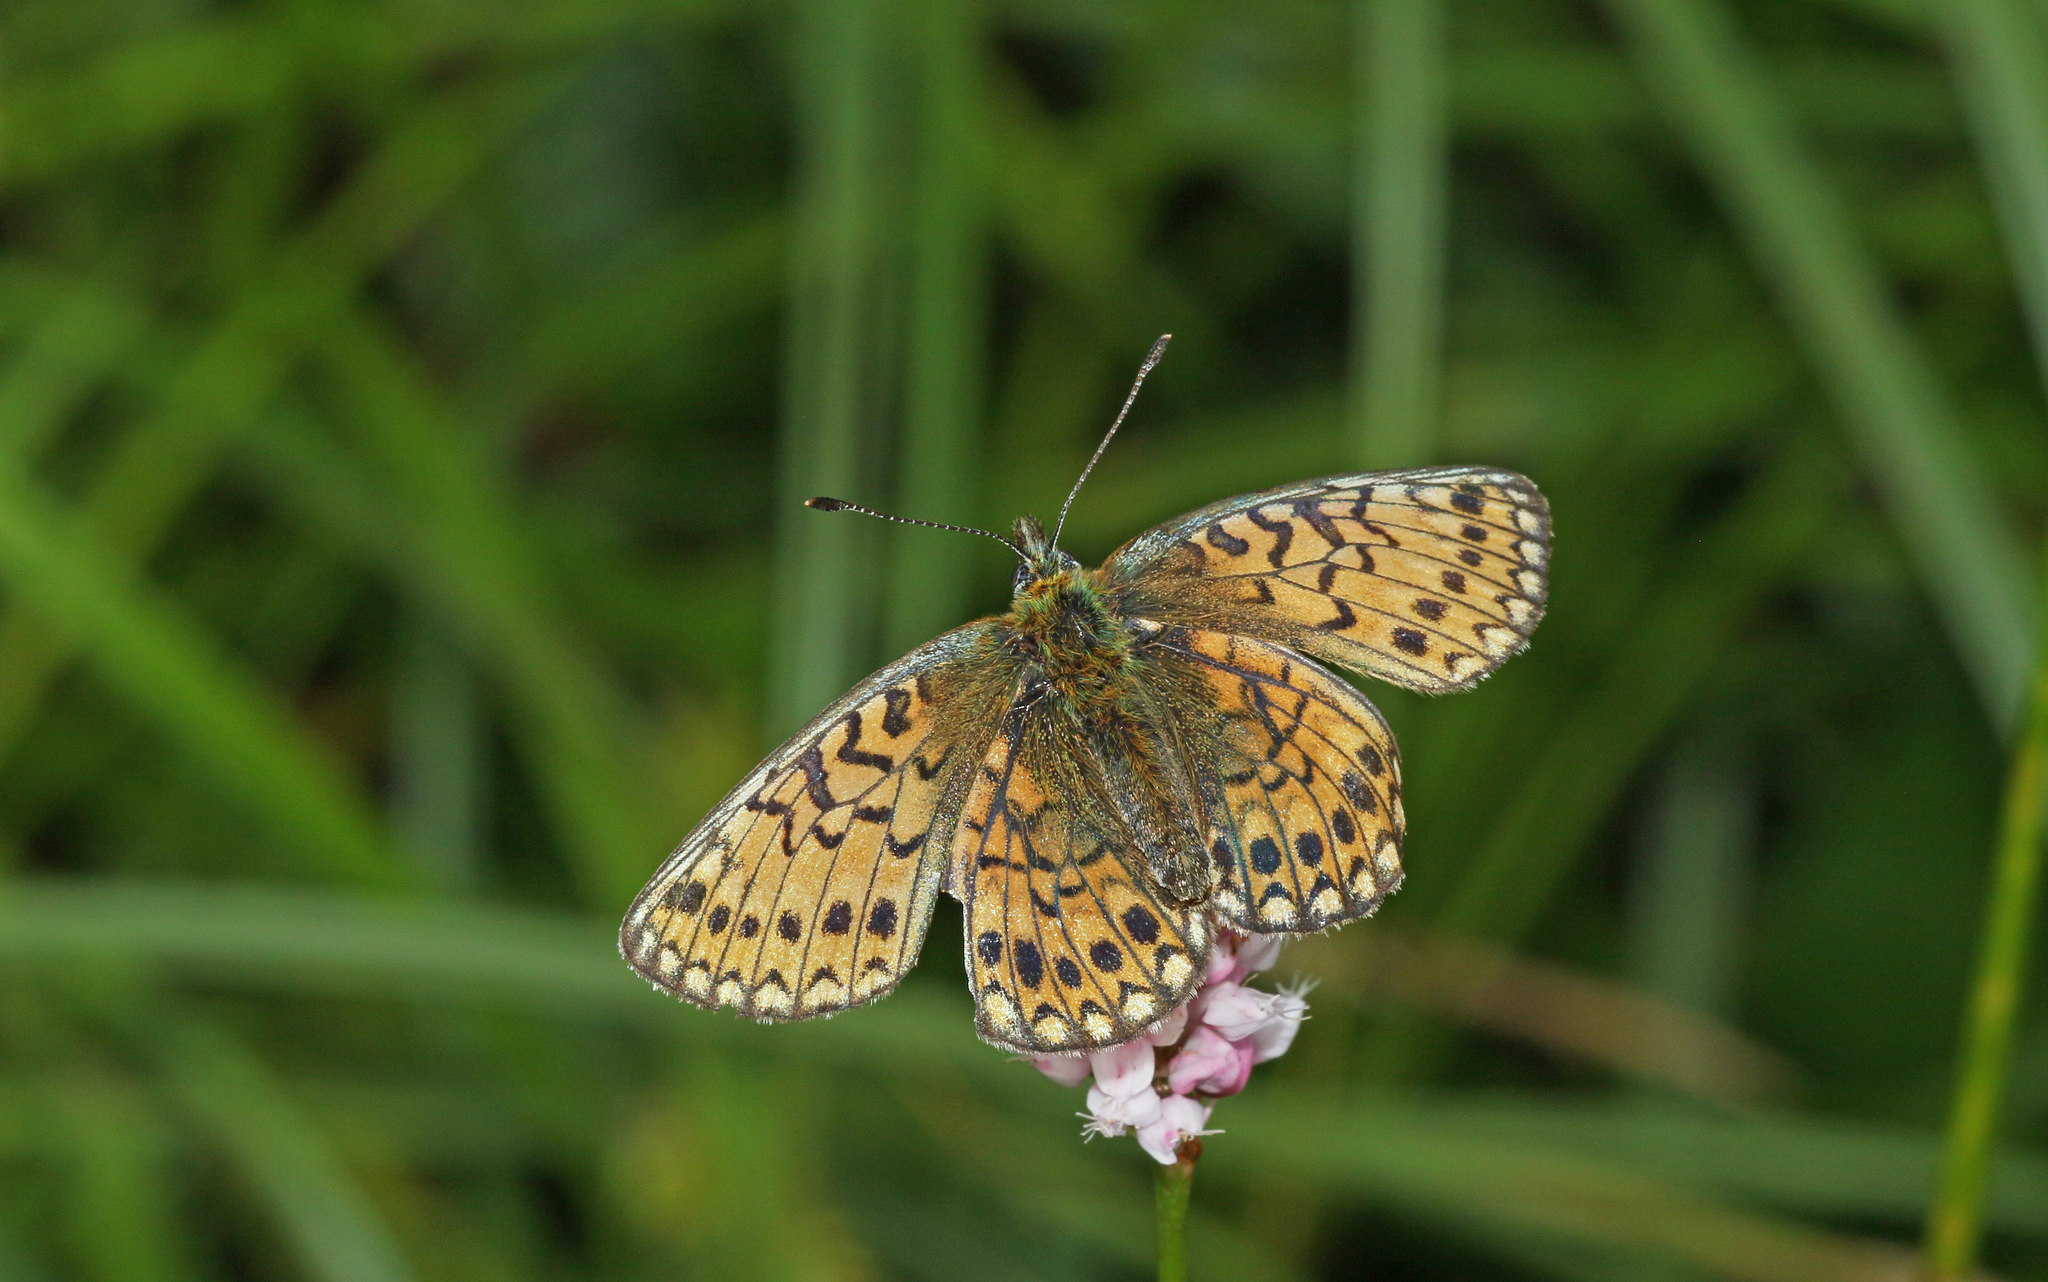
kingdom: Animalia
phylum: Arthropoda
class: Insecta
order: Lepidoptera
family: Nymphalidae
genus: Boloria
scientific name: Boloria eunomia
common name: Bog fritillary
